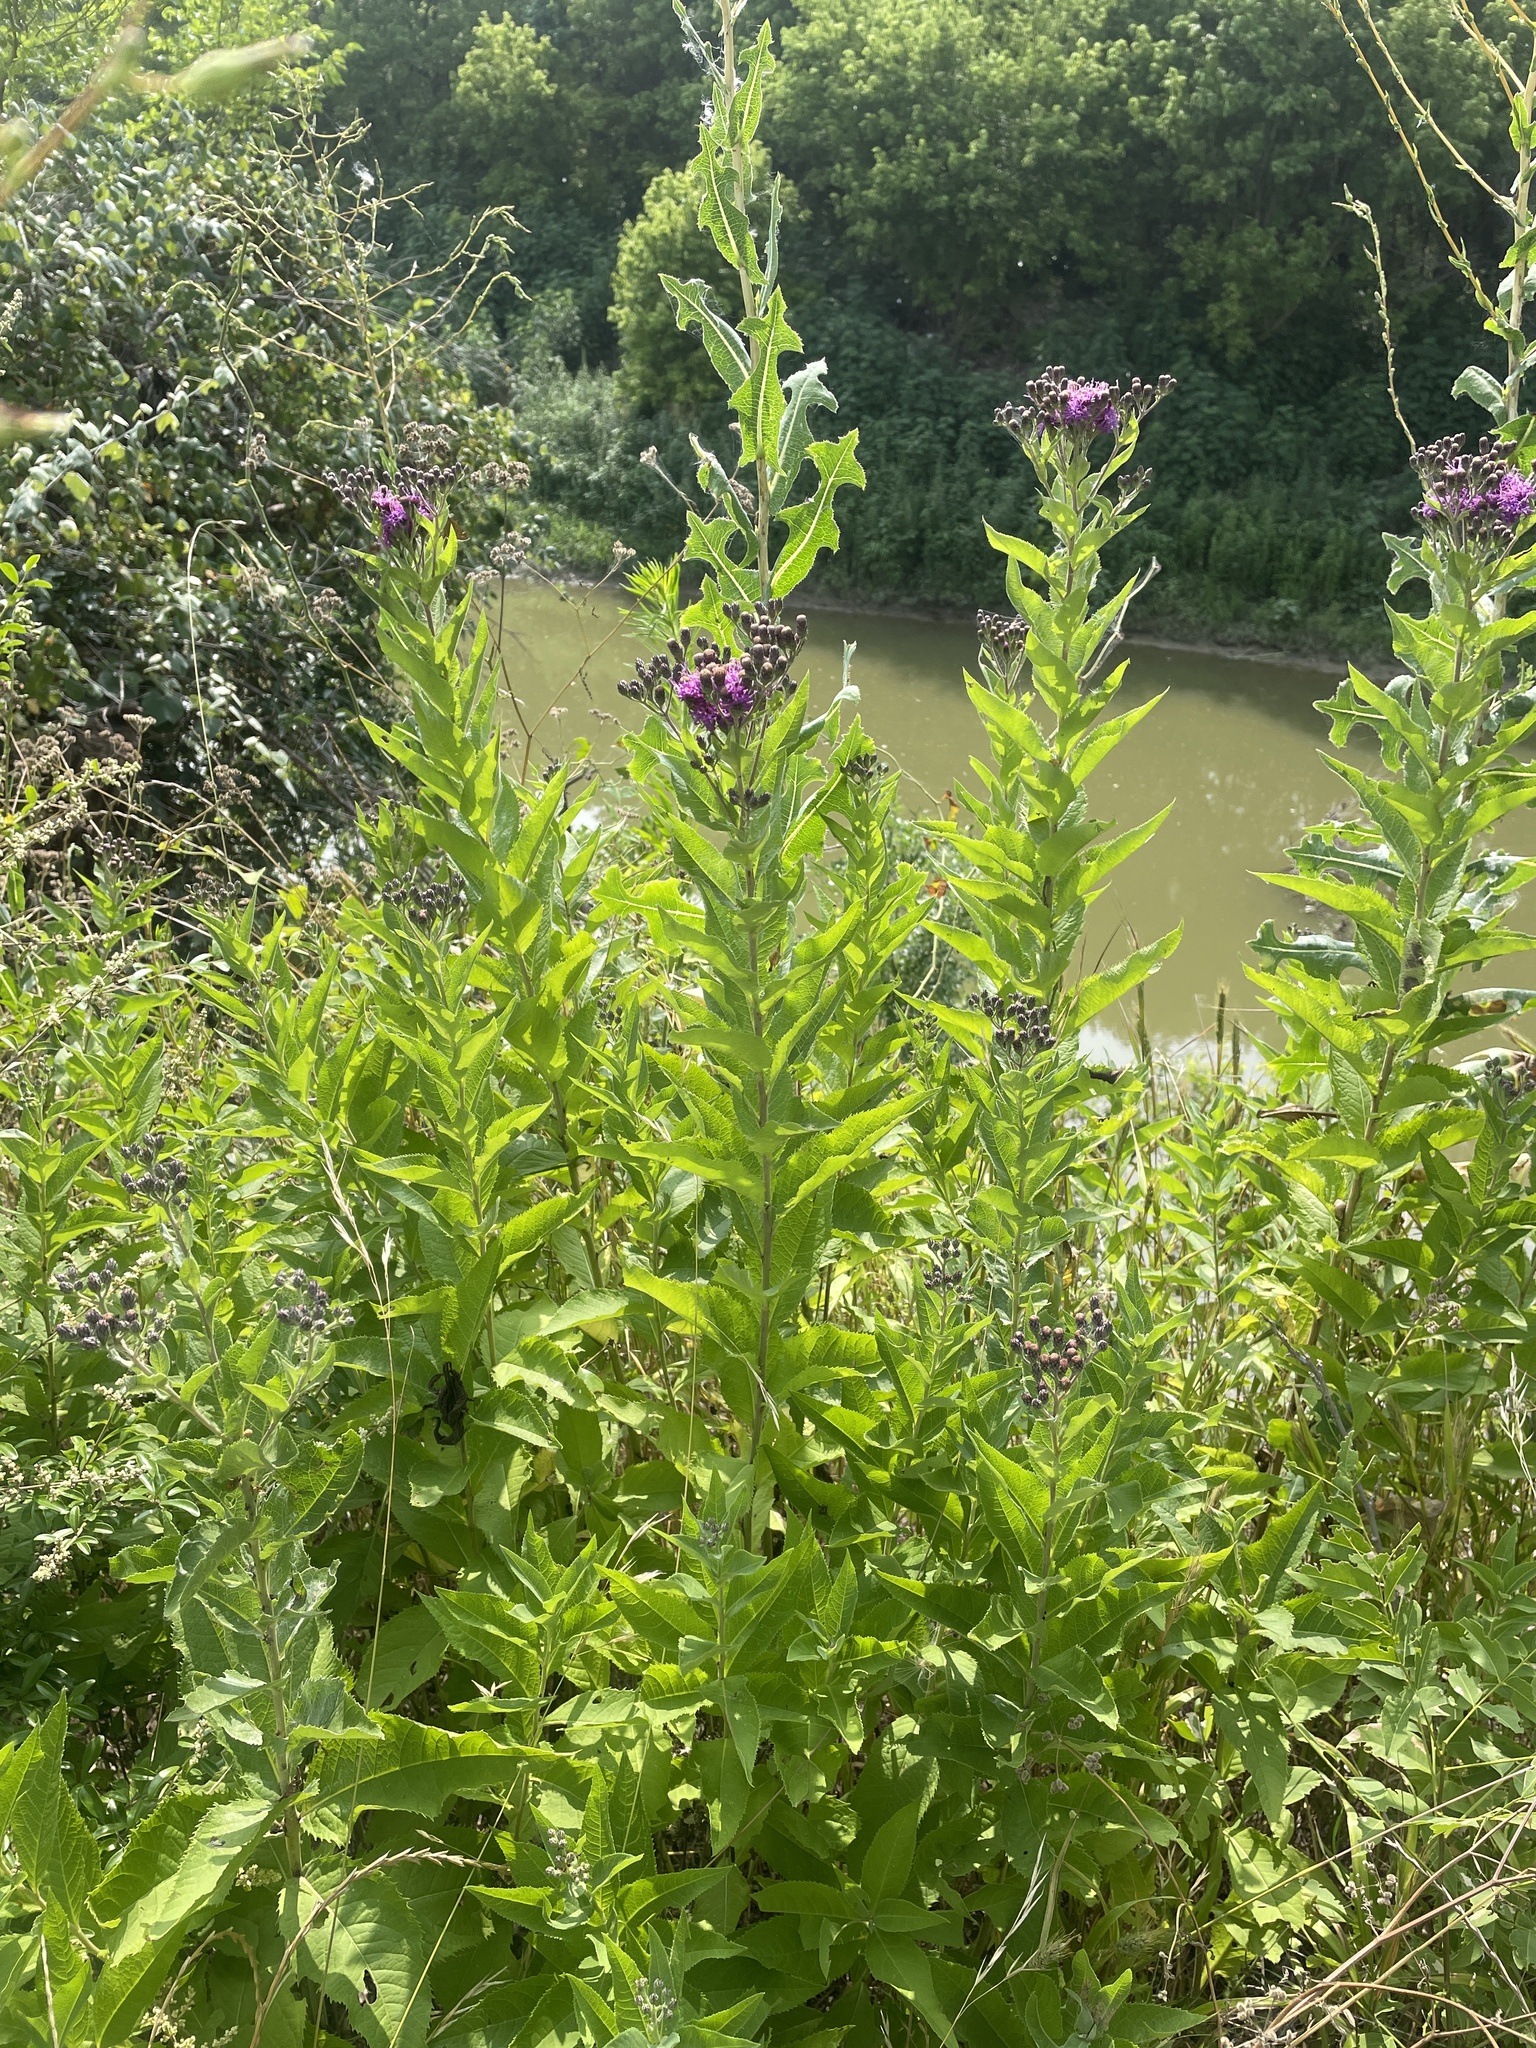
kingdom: Plantae
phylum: Tracheophyta
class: Magnoliopsida
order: Asterales
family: Asteraceae
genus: Vernonia
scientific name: Vernonia baldwinii
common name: Western ironweed
